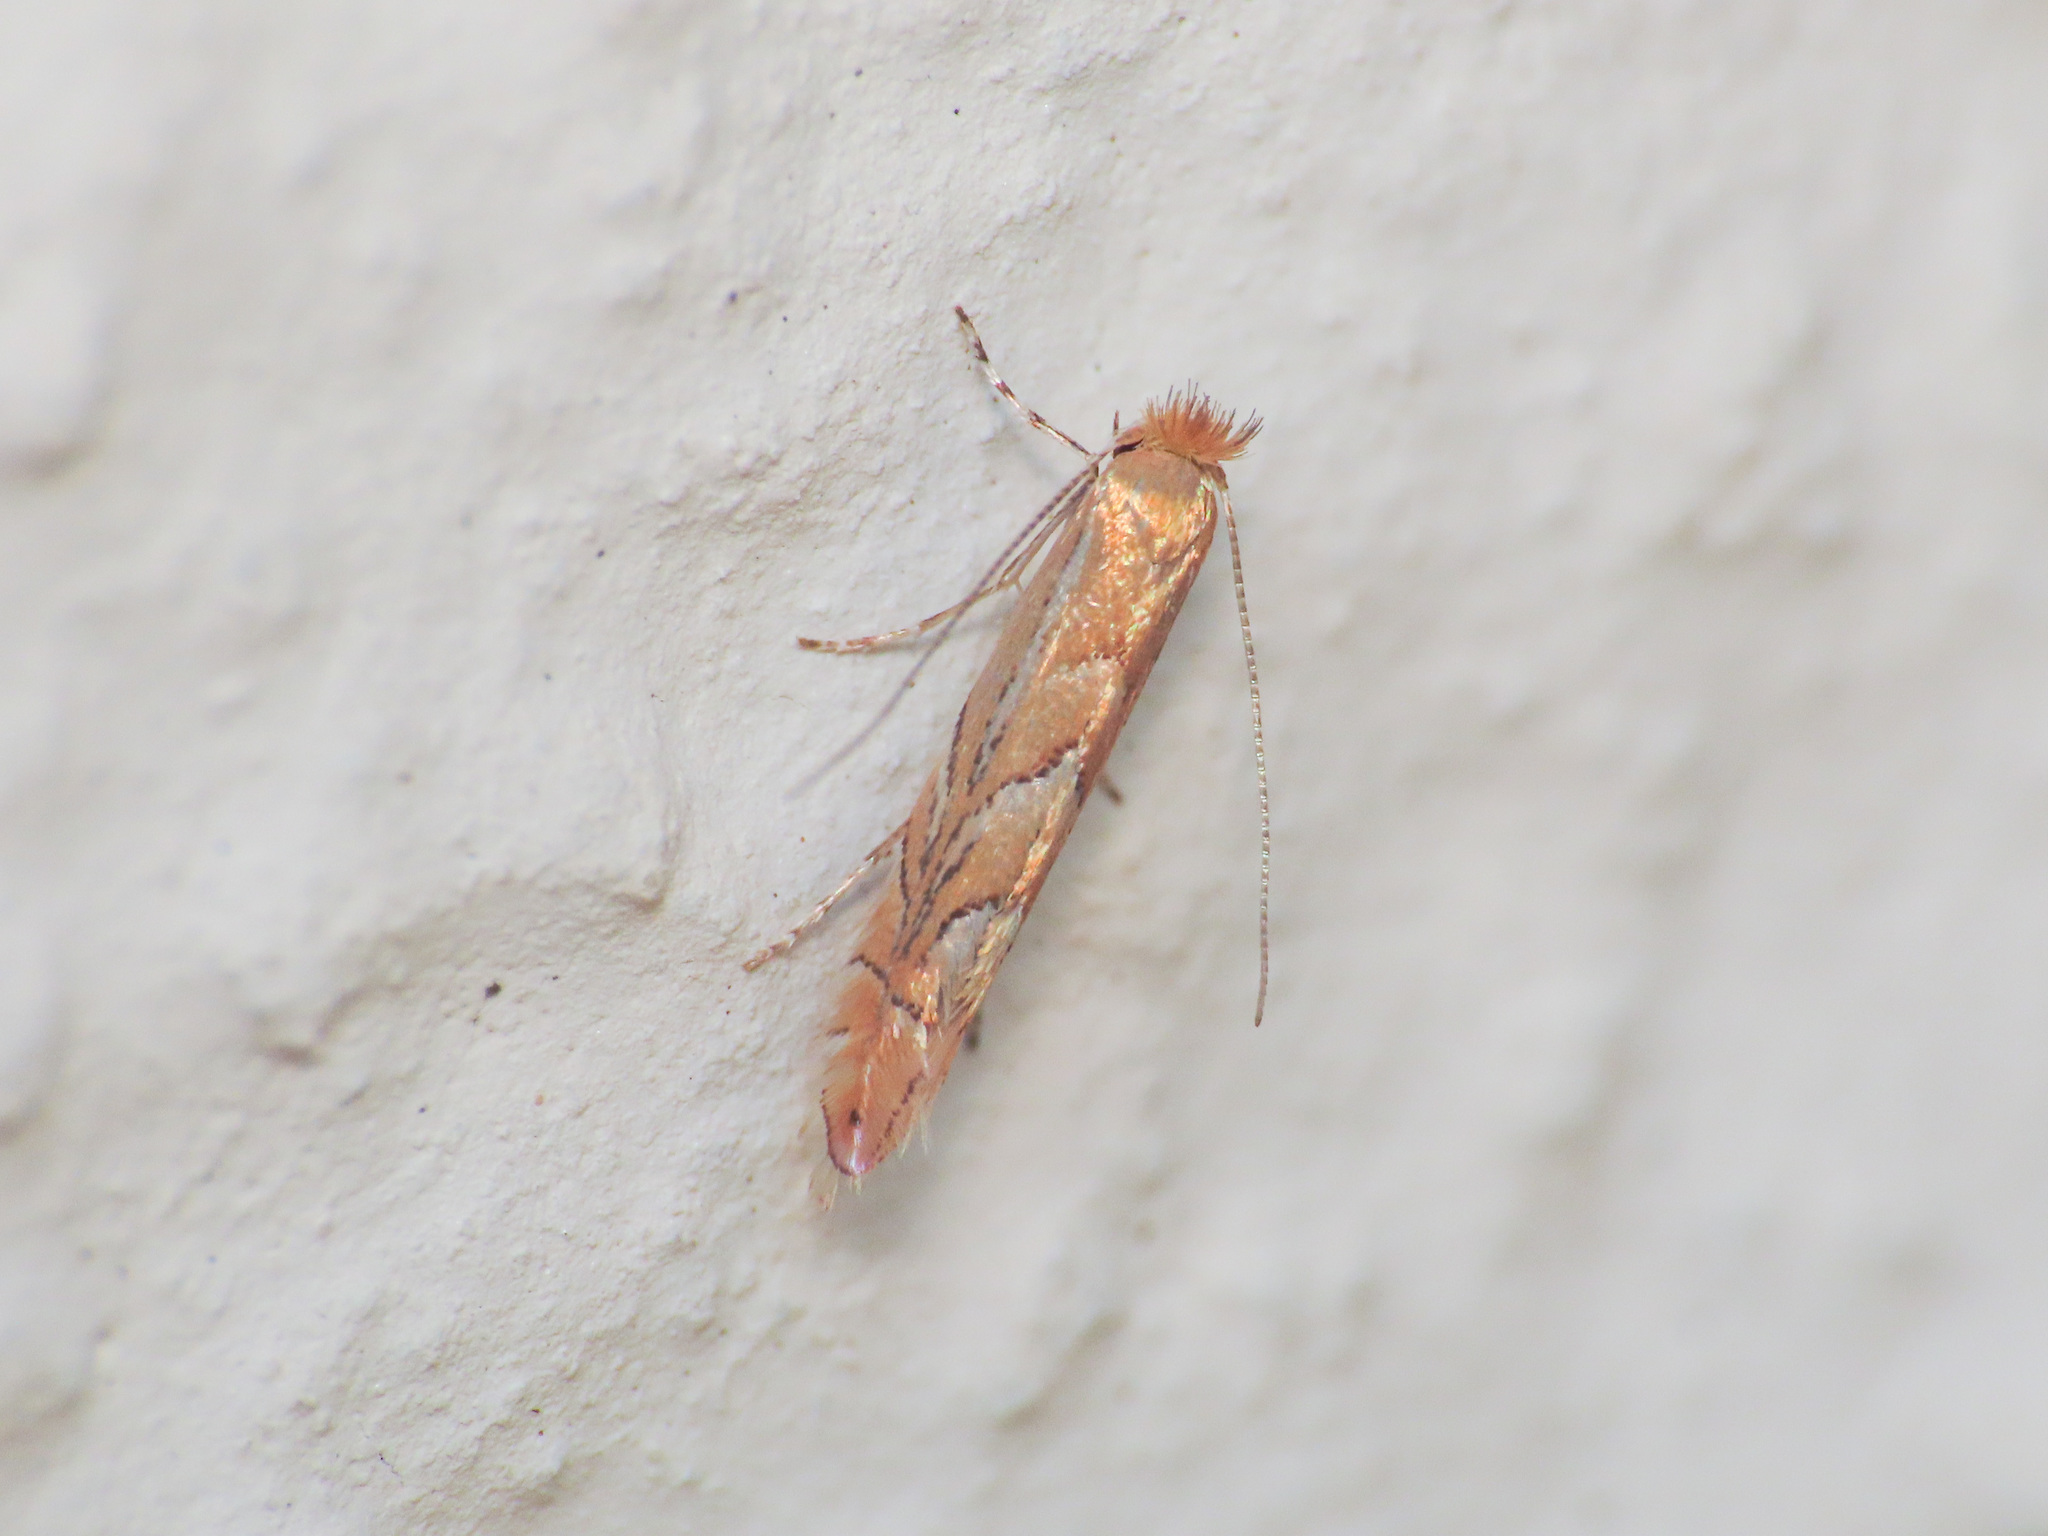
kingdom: Animalia
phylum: Arthropoda
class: Insecta
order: Lepidoptera
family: Gracillariidae
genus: Phyllonorycter
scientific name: Phyllonorycter messaniella
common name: Garden midget
